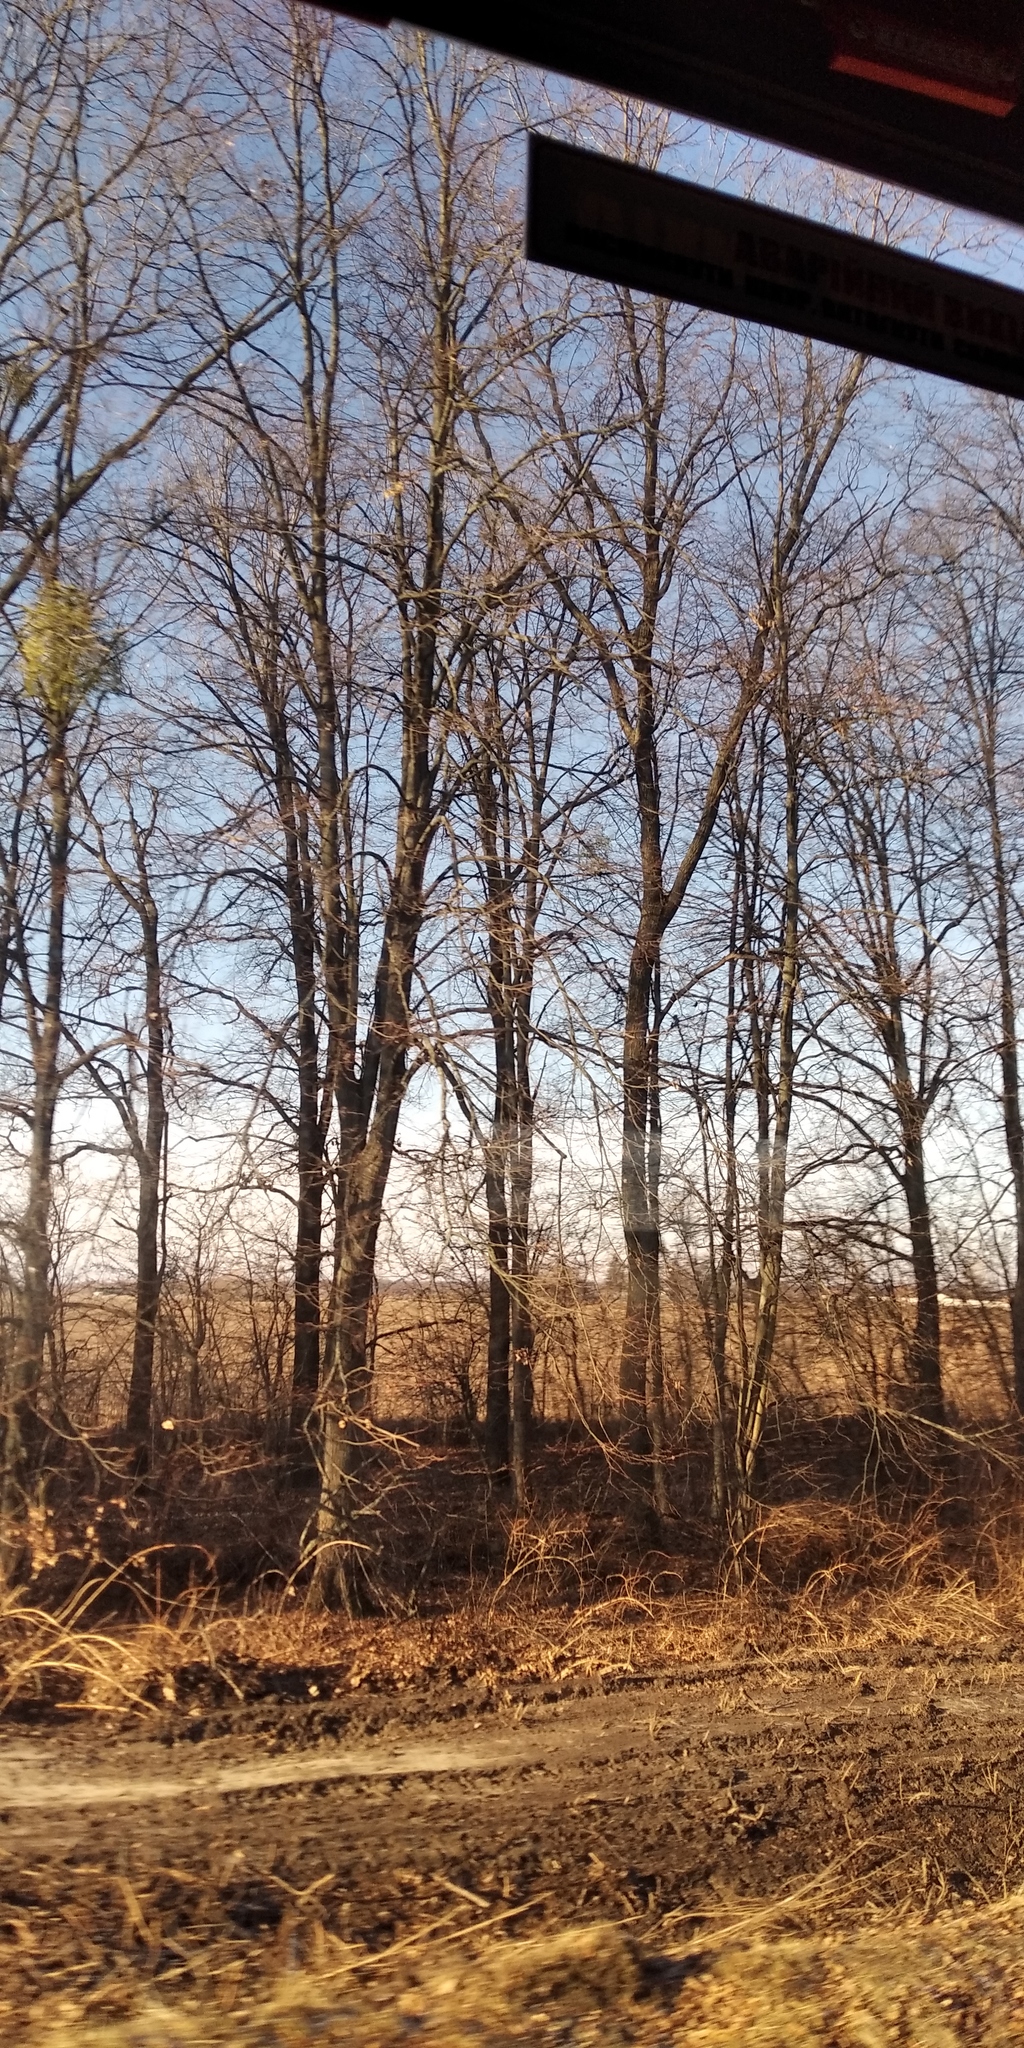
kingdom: Plantae
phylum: Tracheophyta
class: Magnoliopsida
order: Santalales
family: Viscaceae
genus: Viscum
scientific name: Viscum album
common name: Mistletoe
